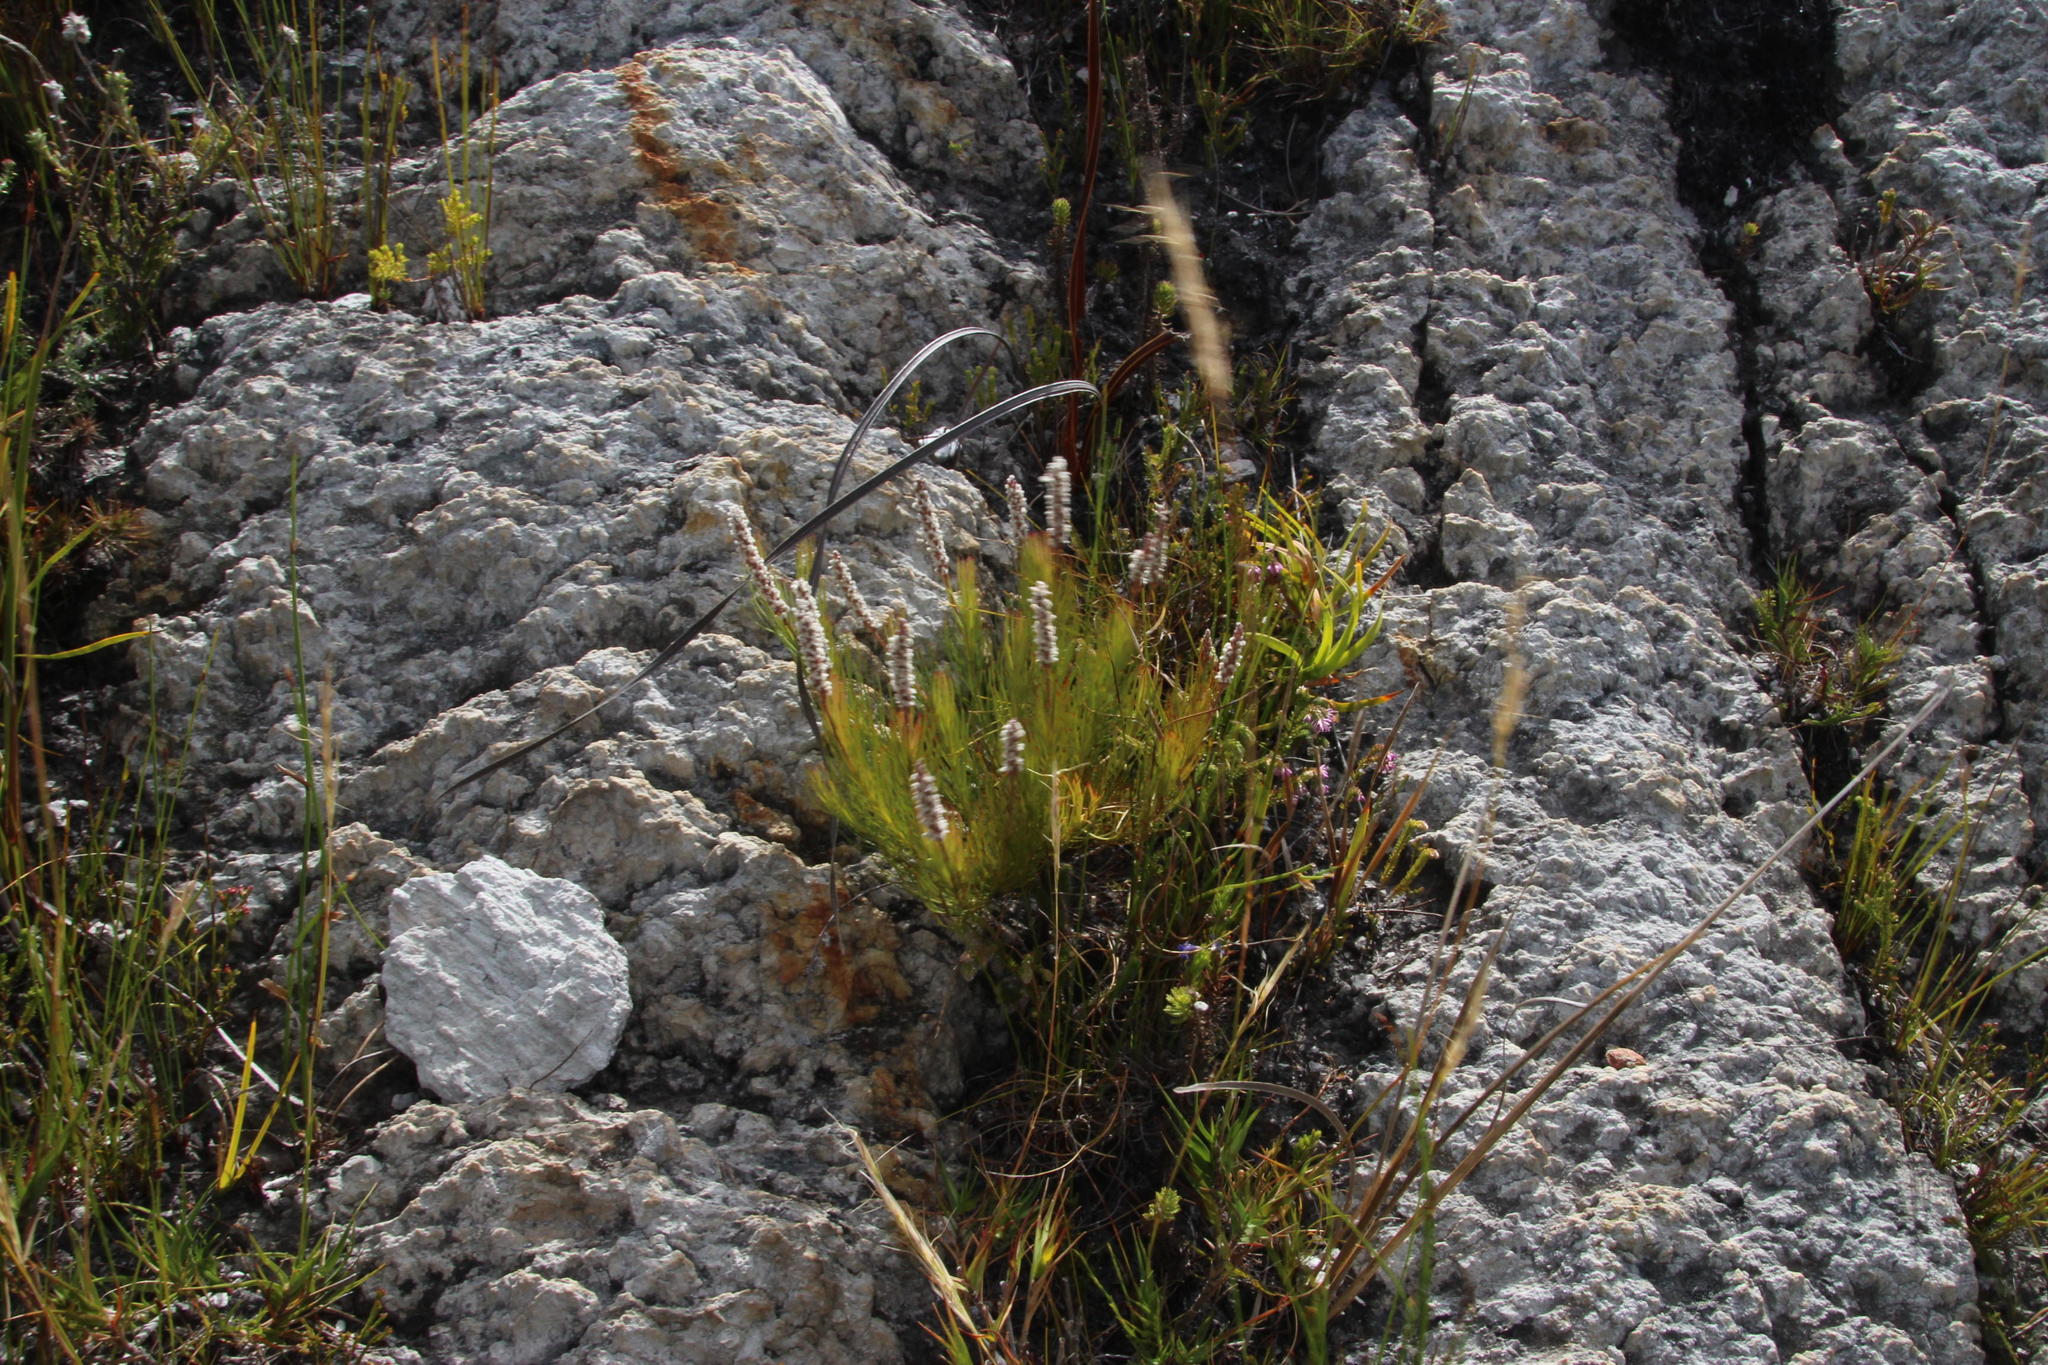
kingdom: Plantae
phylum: Tracheophyta
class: Magnoliopsida
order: Proteales
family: Proteaceae
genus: Spatalla
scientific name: Spatalla mollis
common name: Woolly spoon
